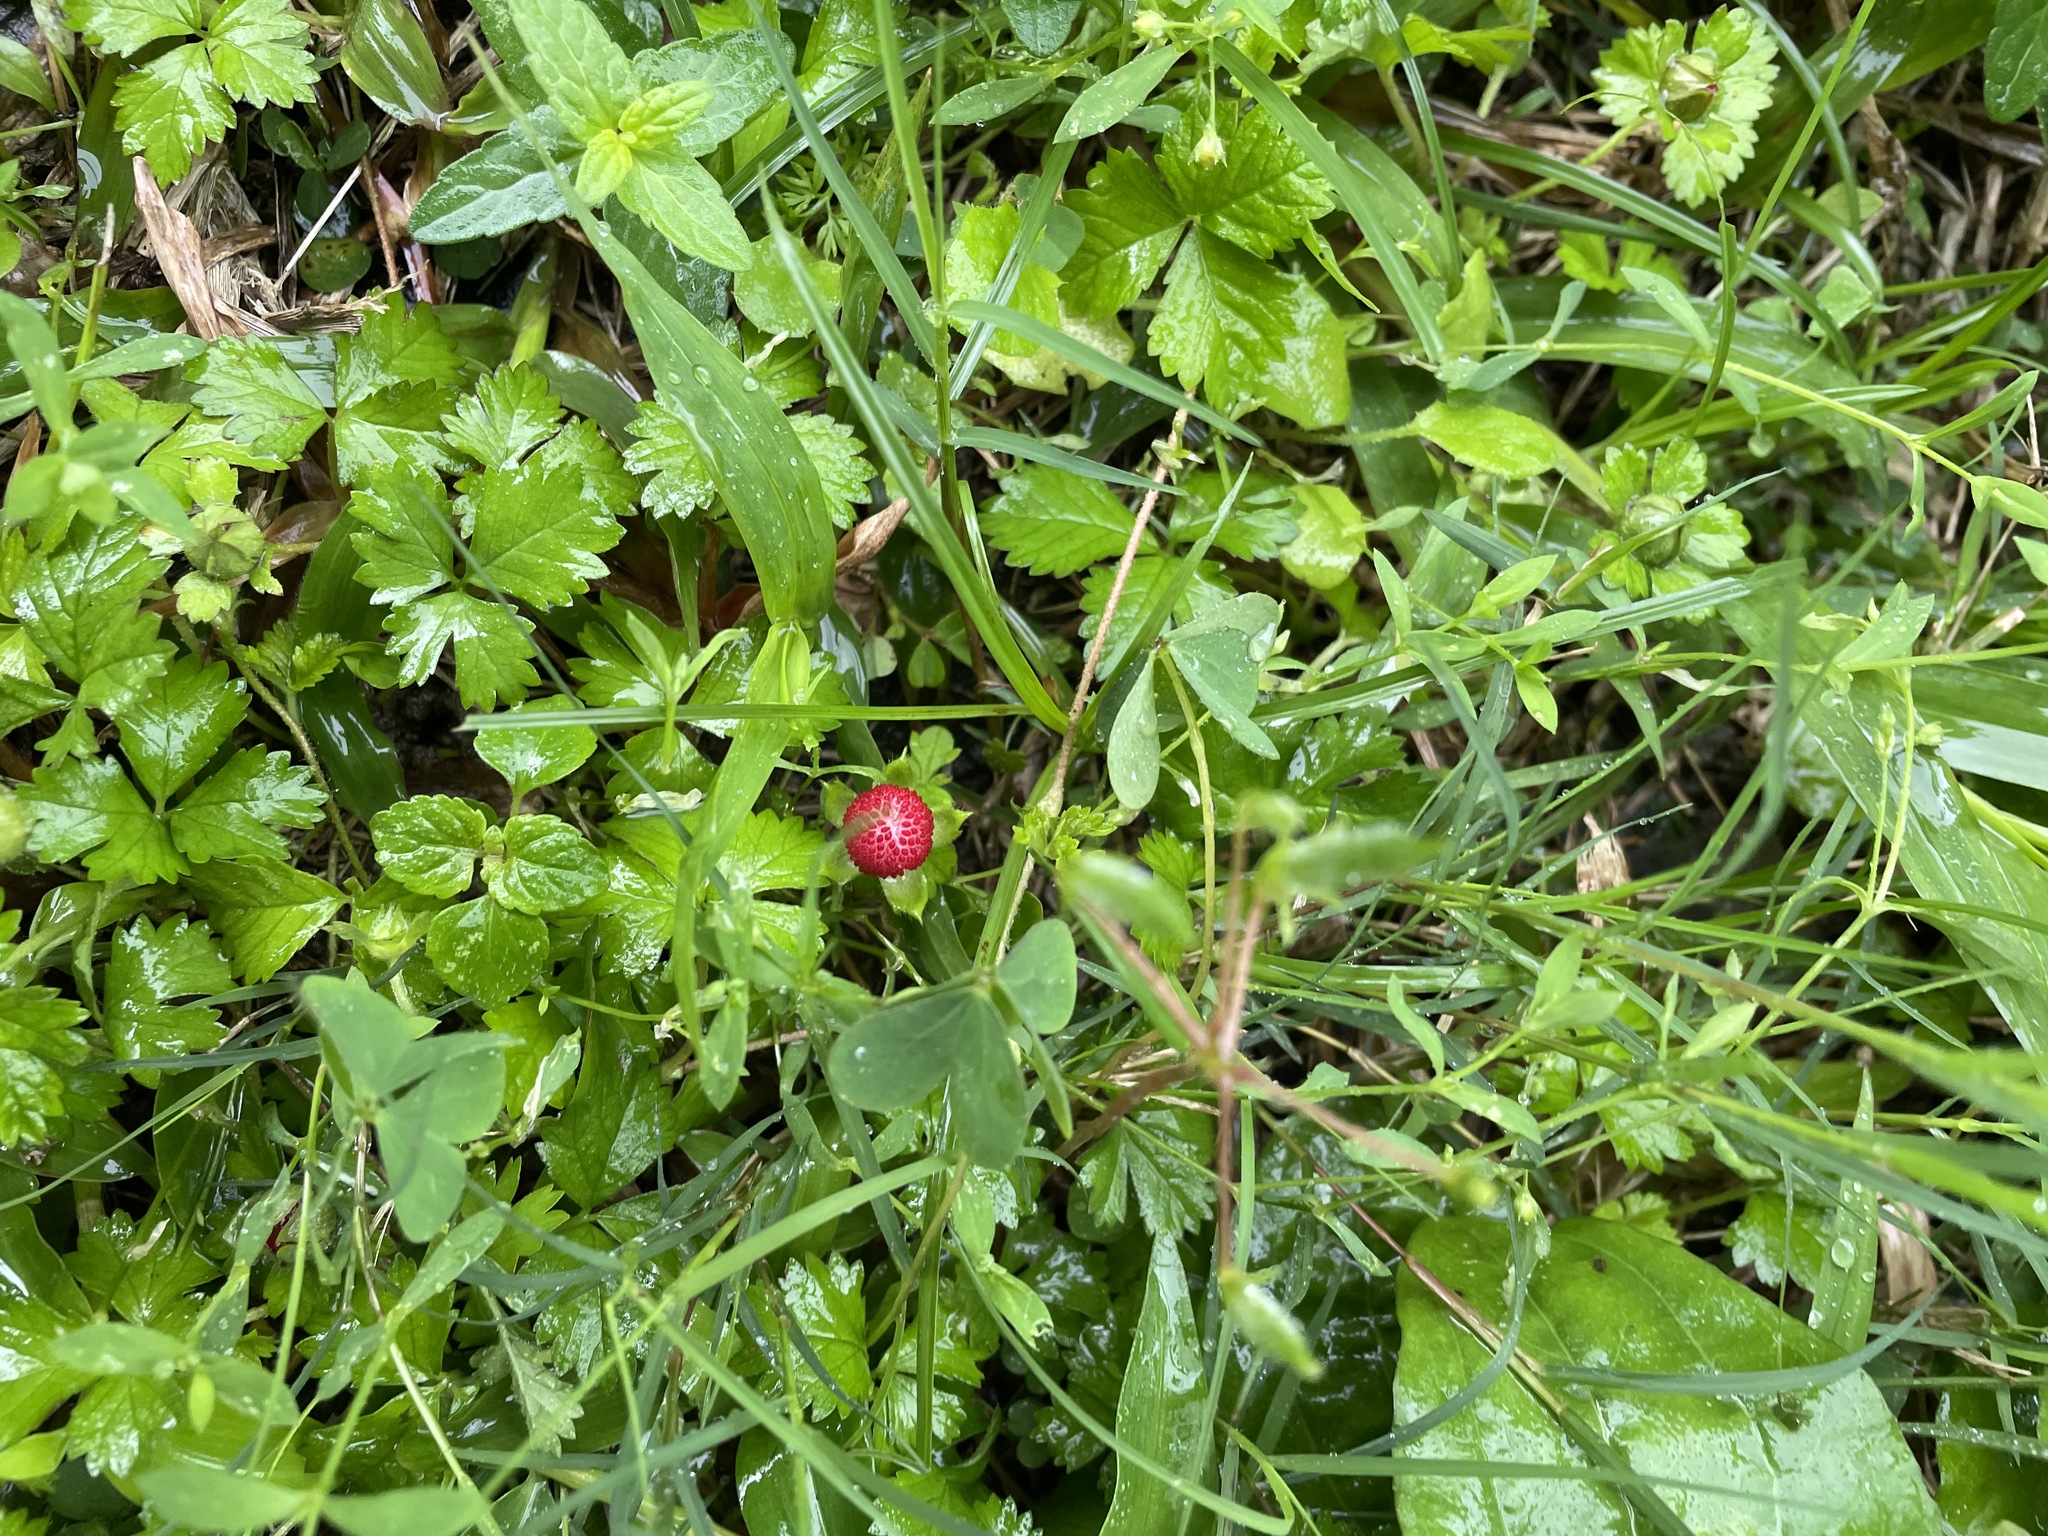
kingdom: Plantae
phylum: Tracheophyta
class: Magnoliopsida
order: Rosales
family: Rosaceae
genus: Potentilla
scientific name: Potentilla wallichiana
